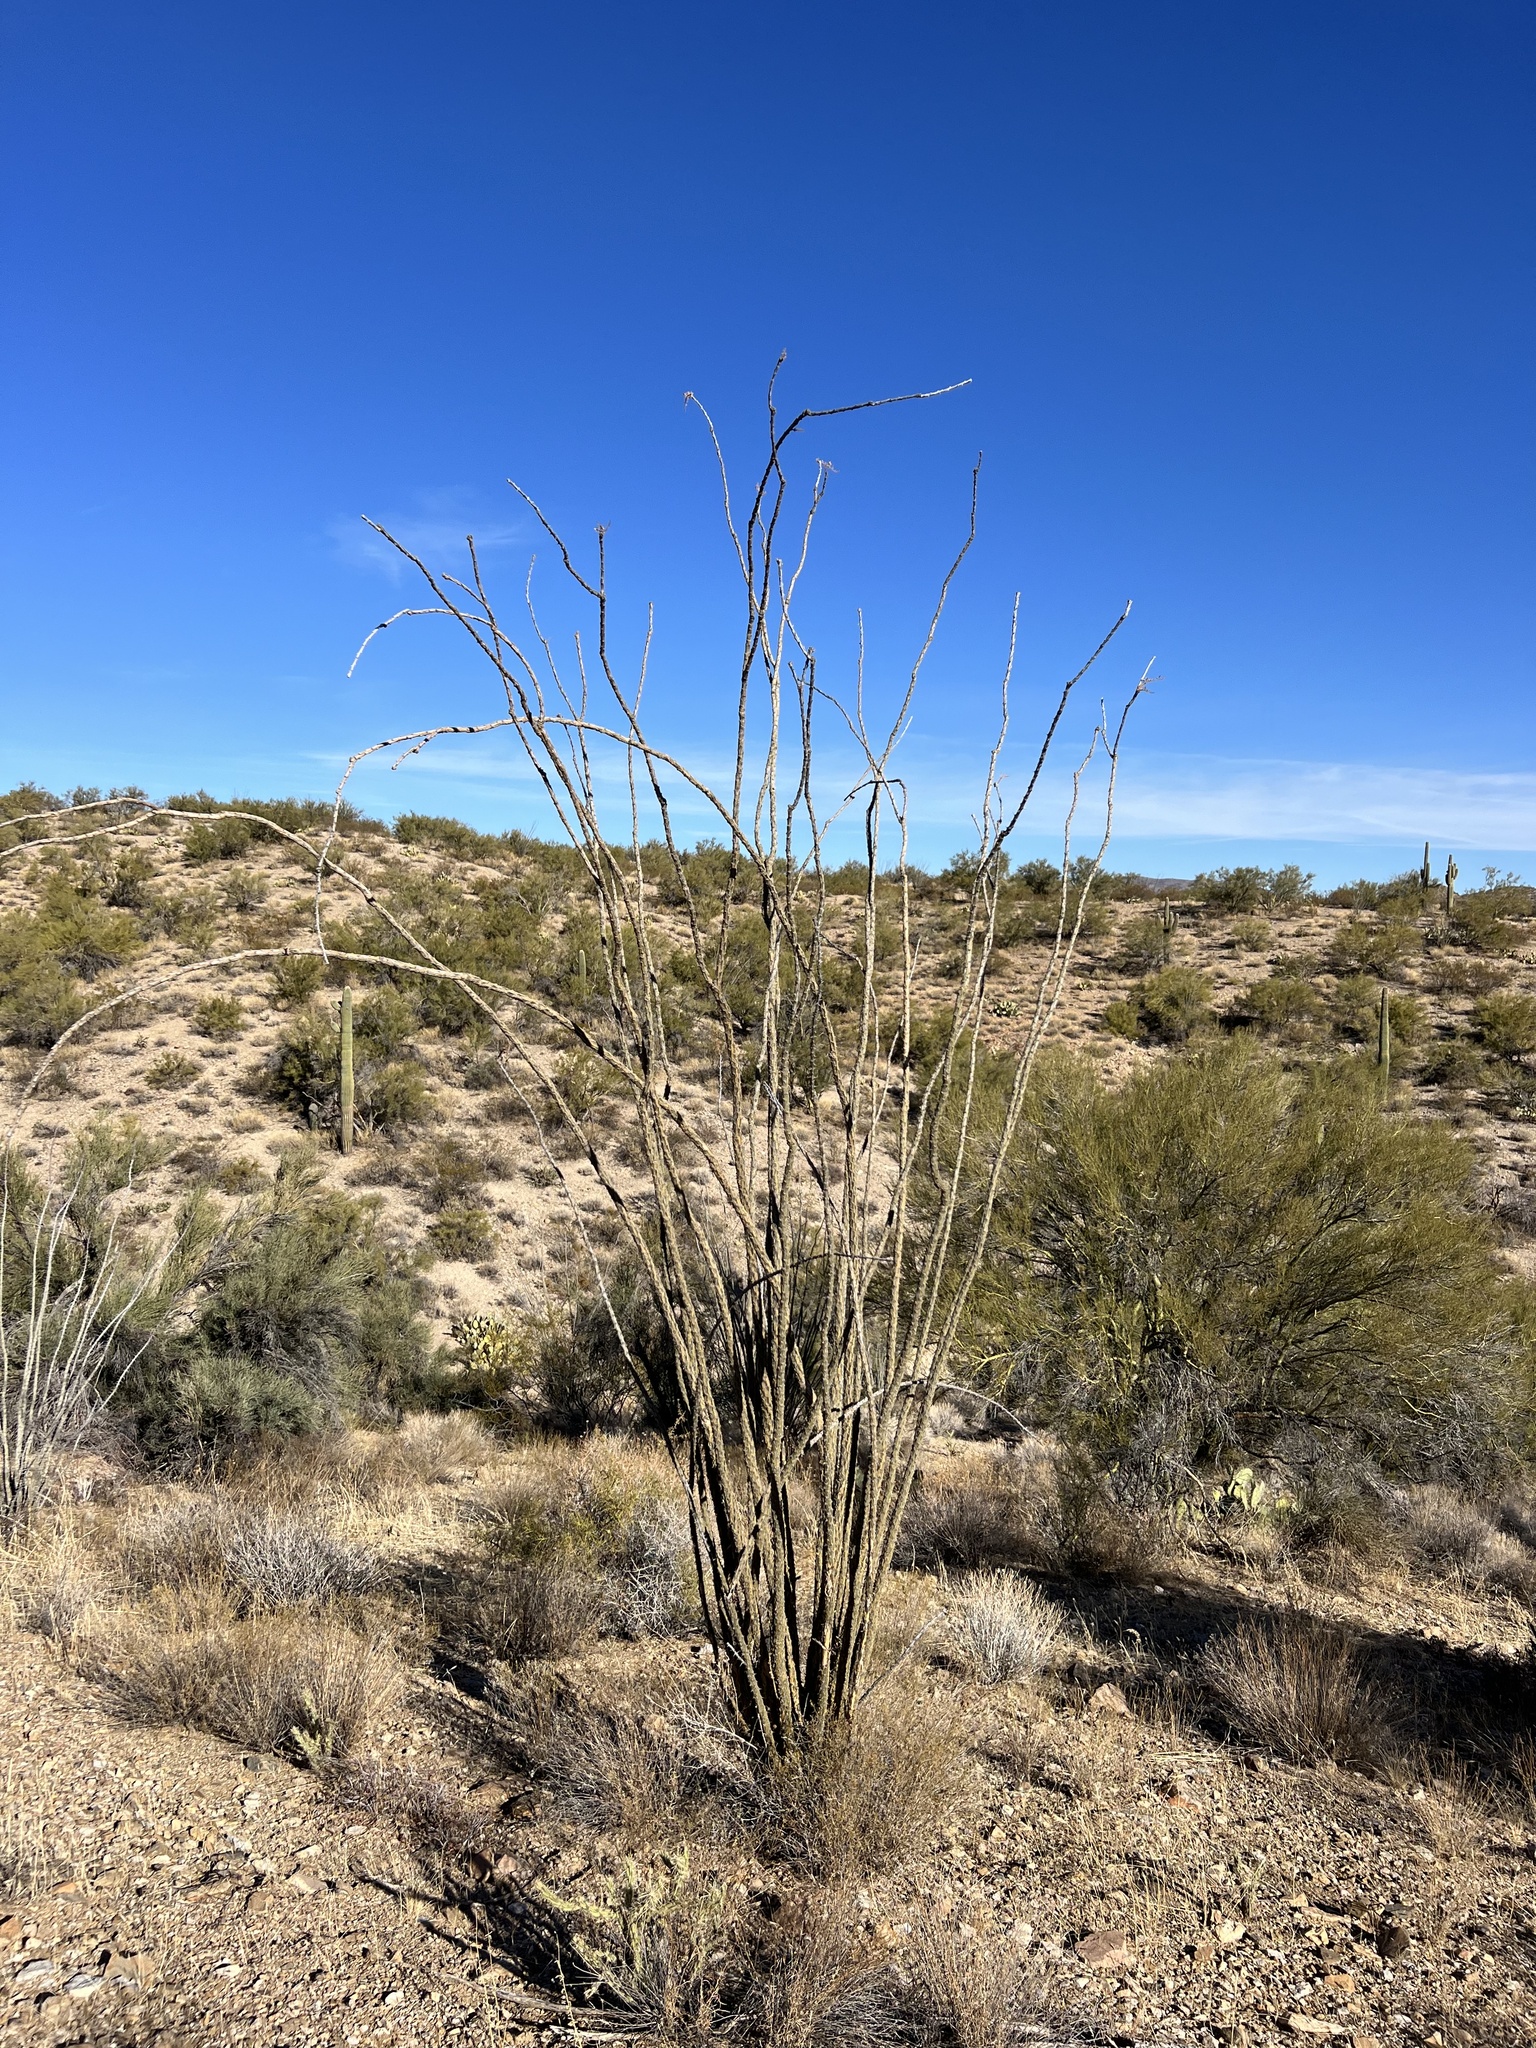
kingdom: Plantae
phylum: Tracheophyta
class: Magnoliopsida
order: Ericales
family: Fouquieriaceae
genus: Fouquieria
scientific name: Fouquieria splendens
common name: Vine-cactus
